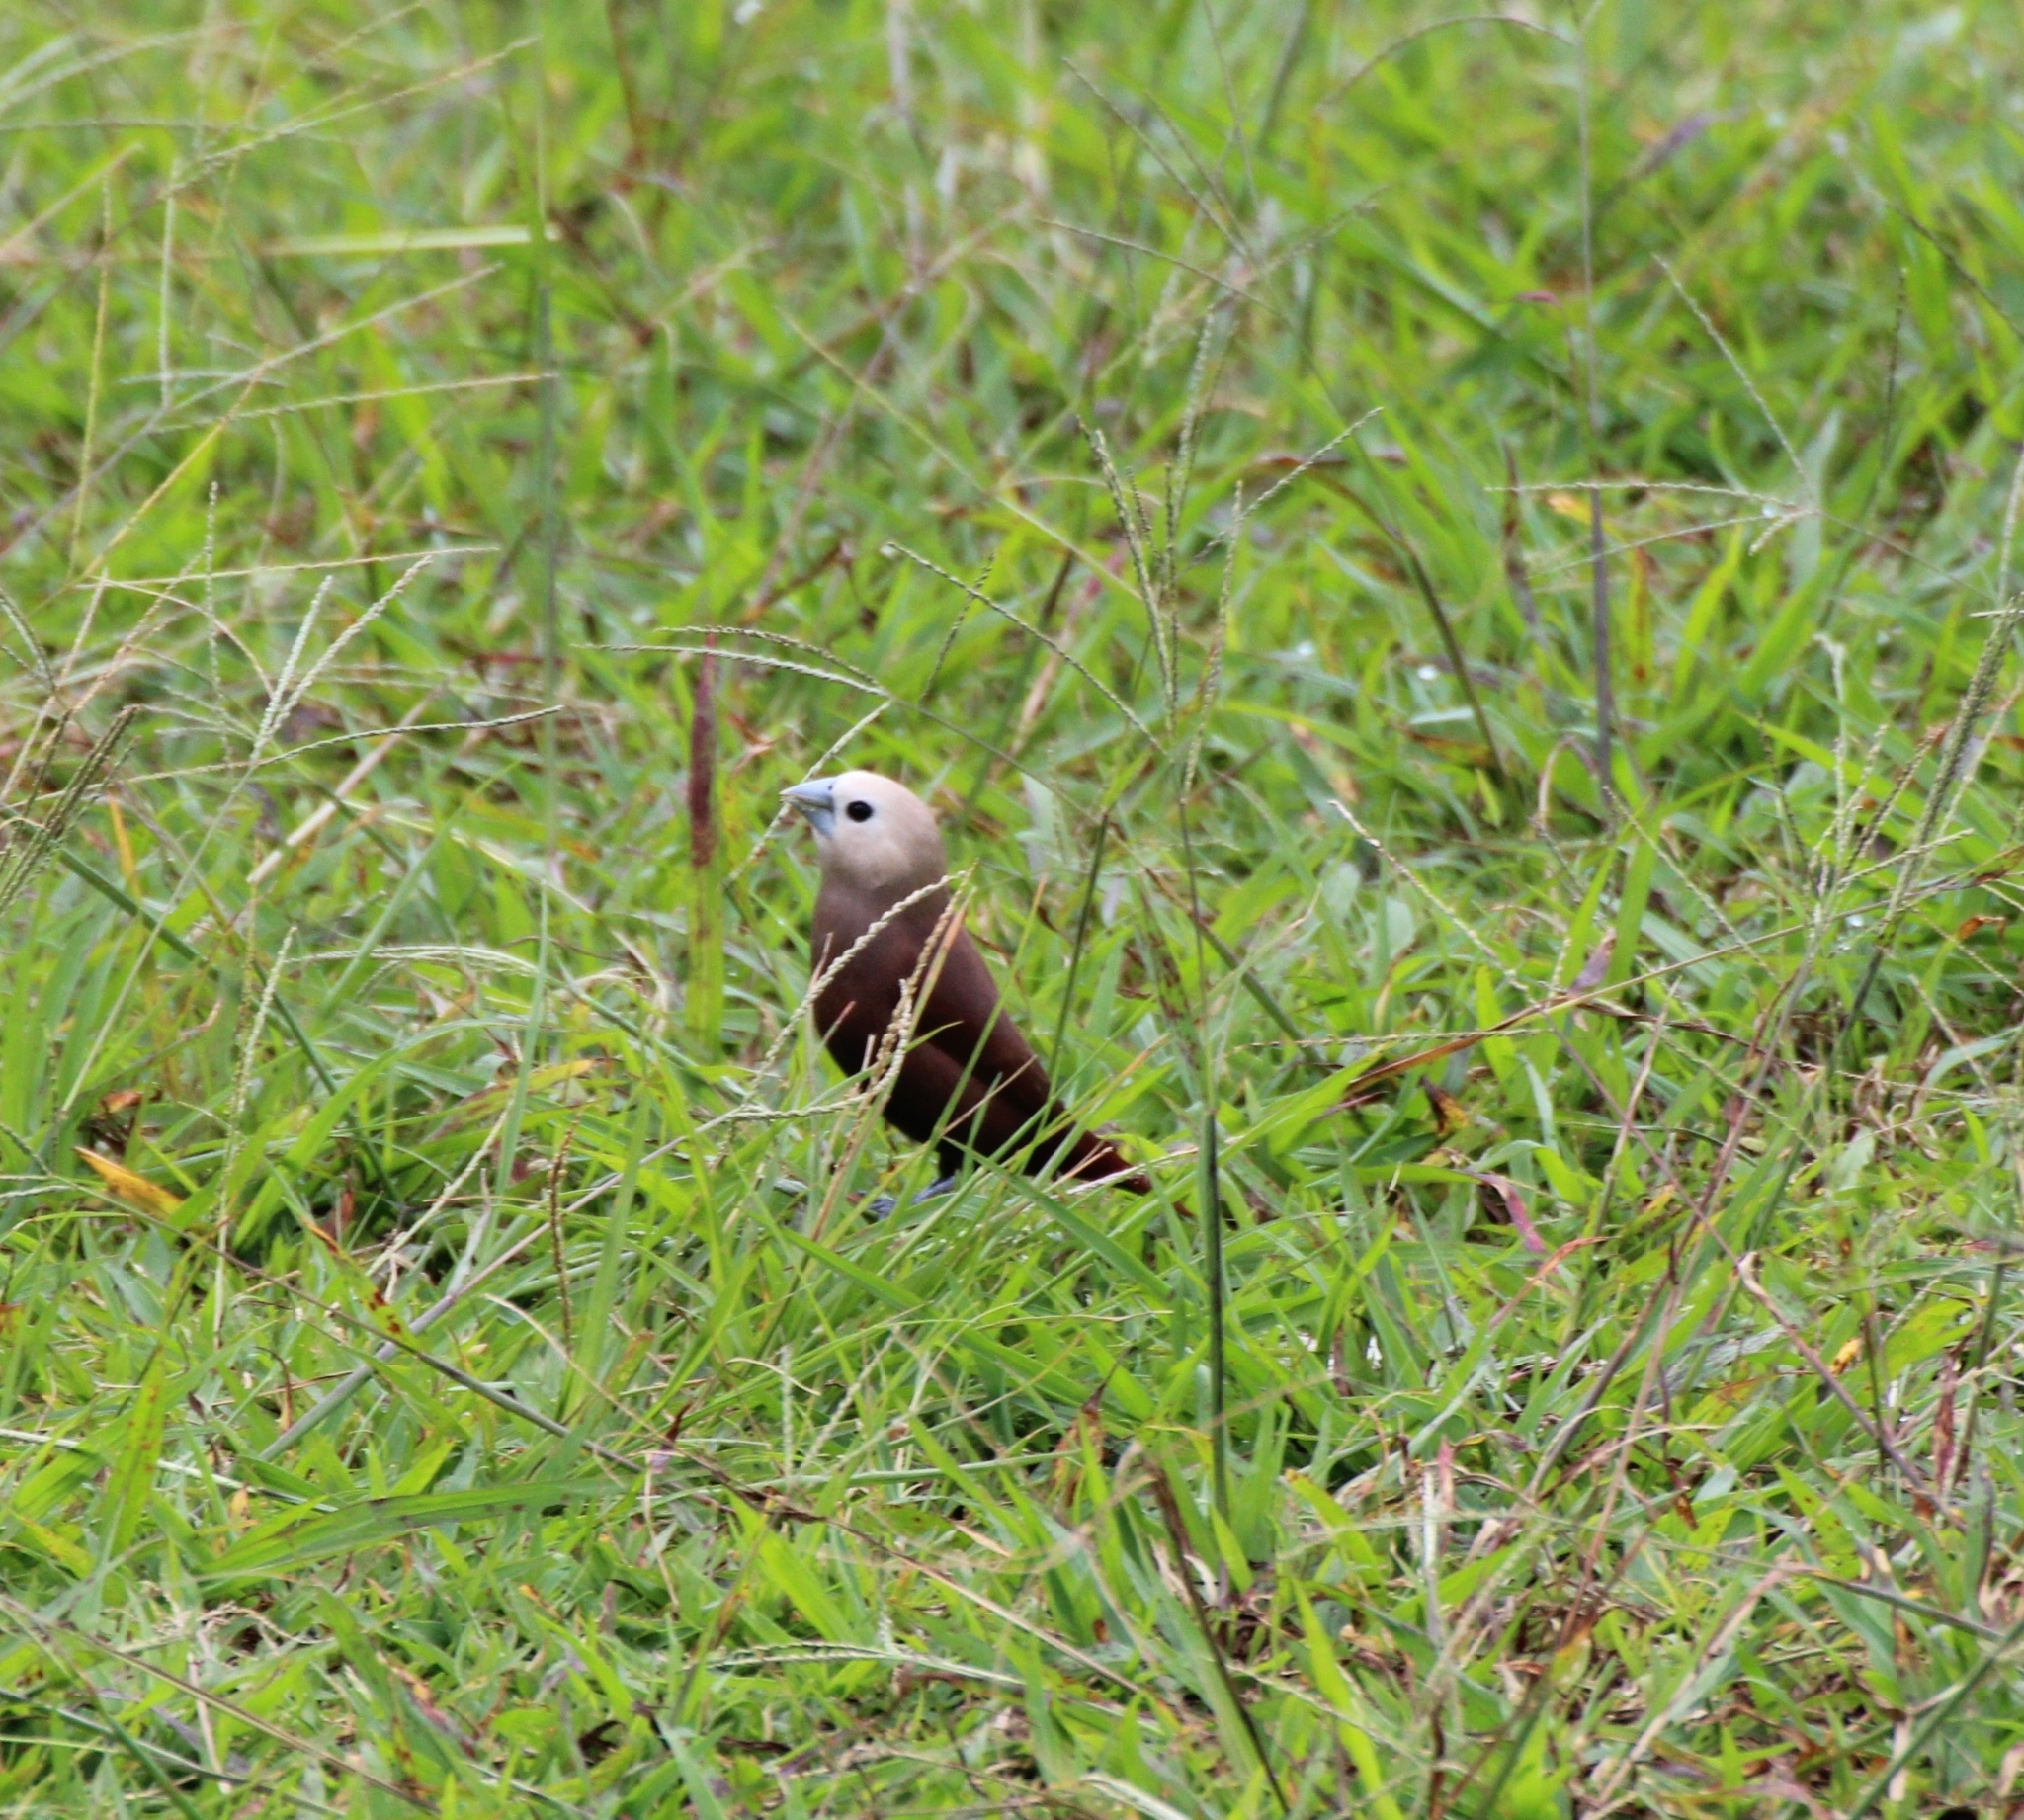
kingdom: Animalia
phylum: Chordata
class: Aves
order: Passeriformes
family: Estrildidae
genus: Lonchura
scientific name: Lonchura maja
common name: White-headed munia
